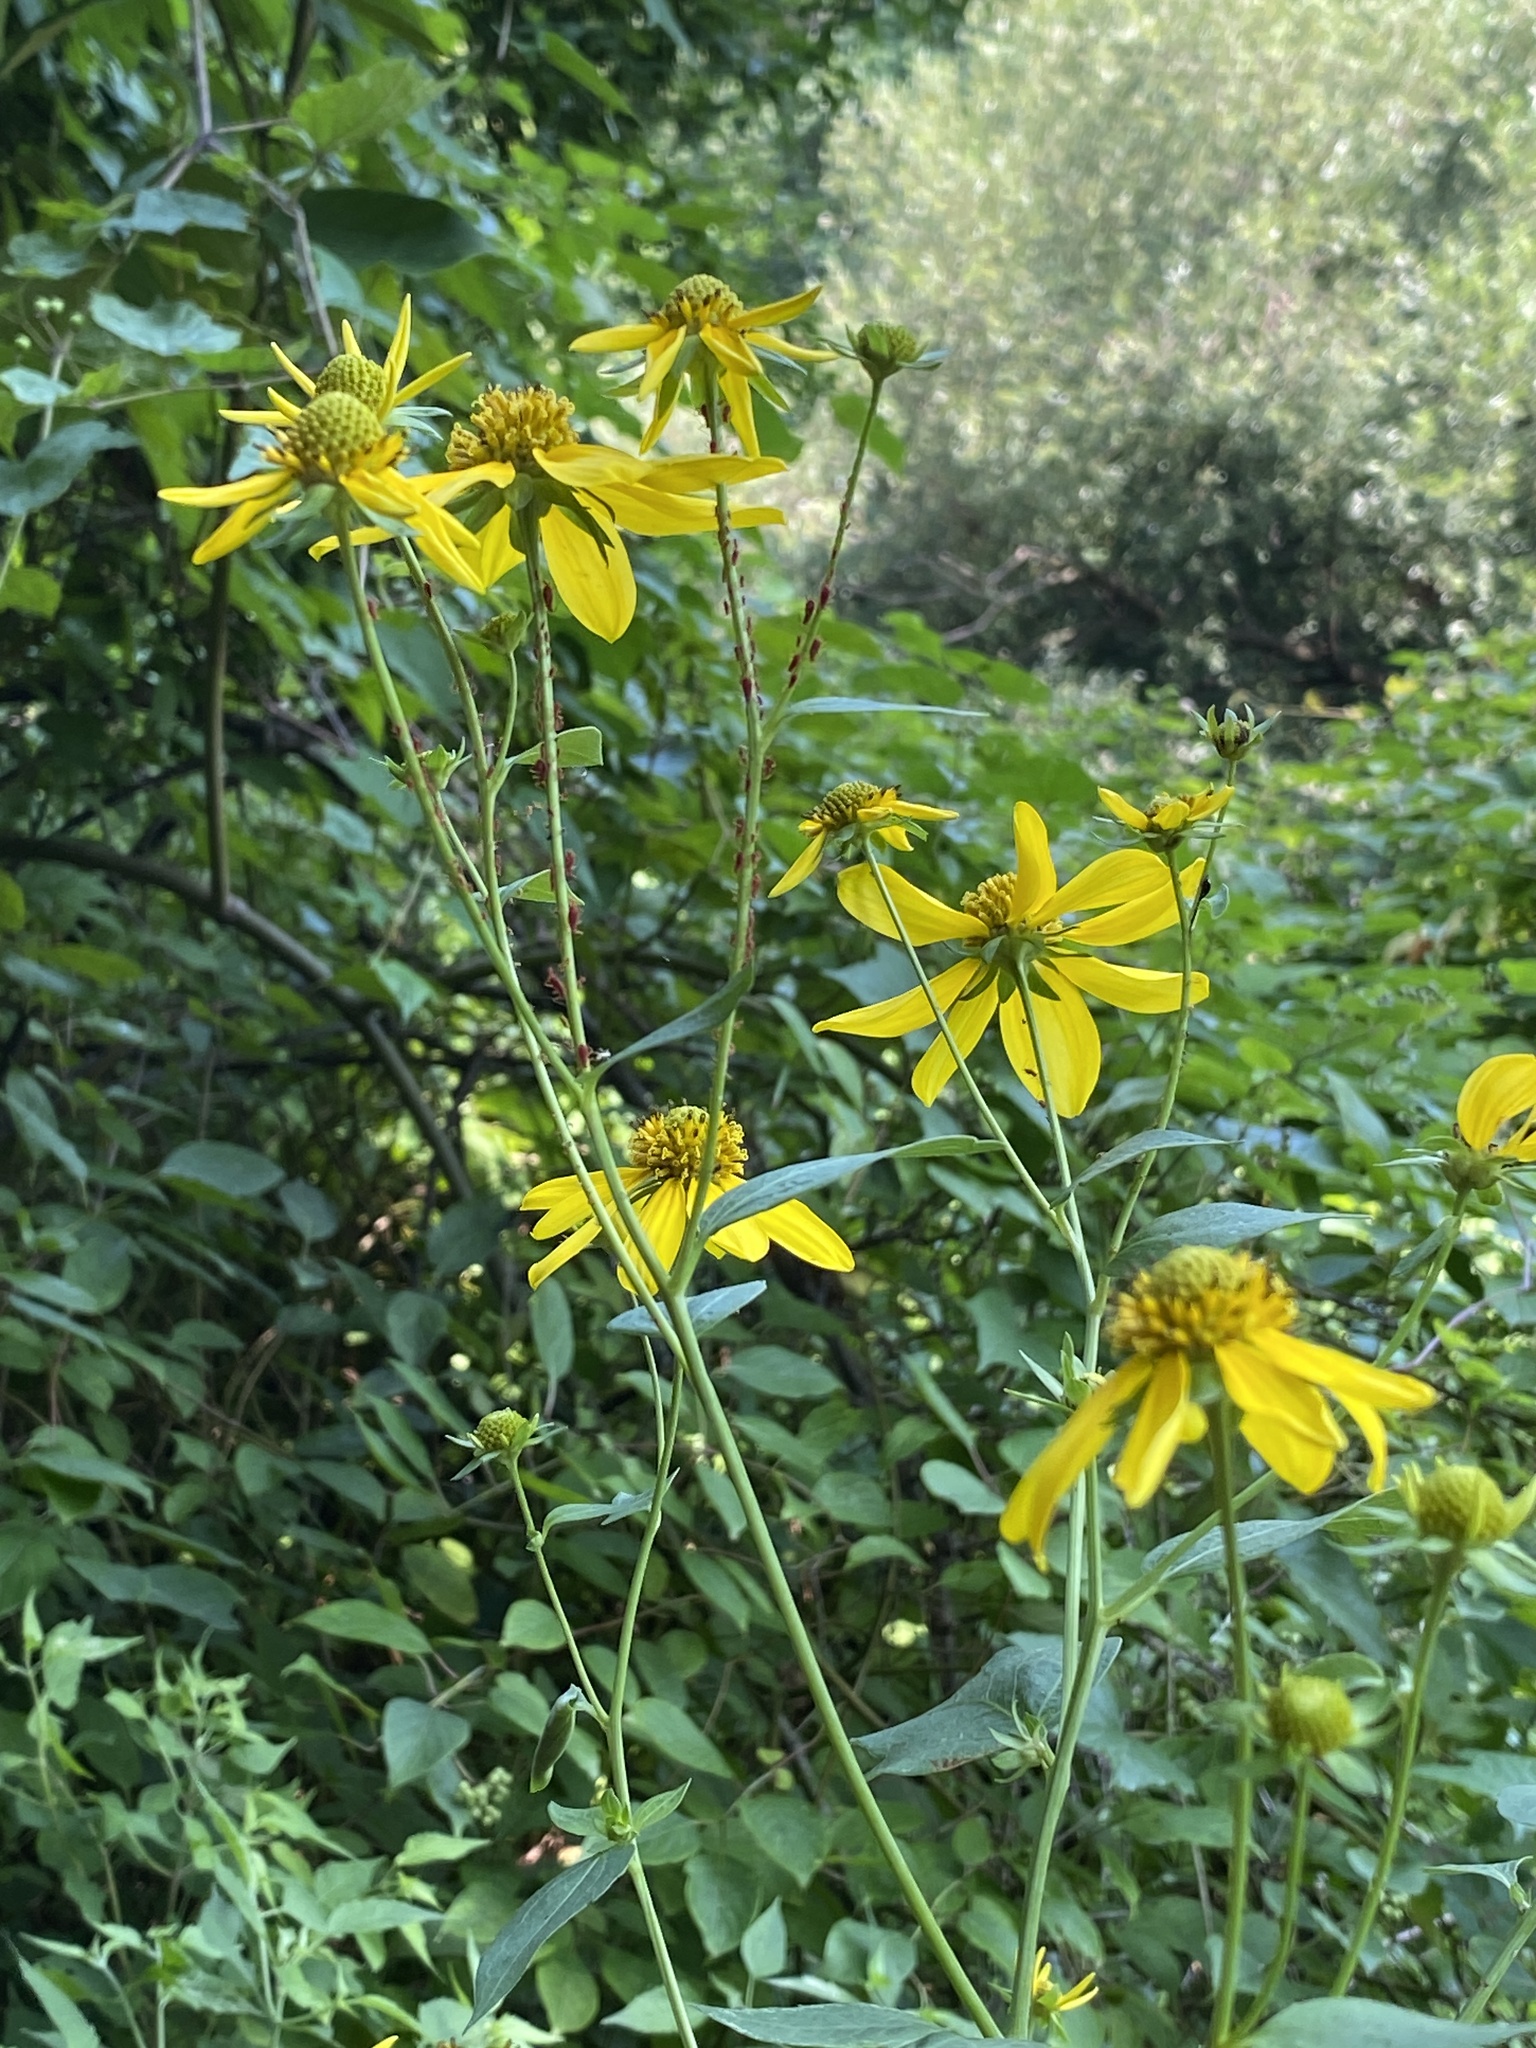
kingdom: Plantae
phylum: Tracheophyta
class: Magnoliopsida
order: Asterales
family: Asteraceae
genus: Rudbeckia
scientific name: Rudbeckia laciniata
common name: Coneflower
